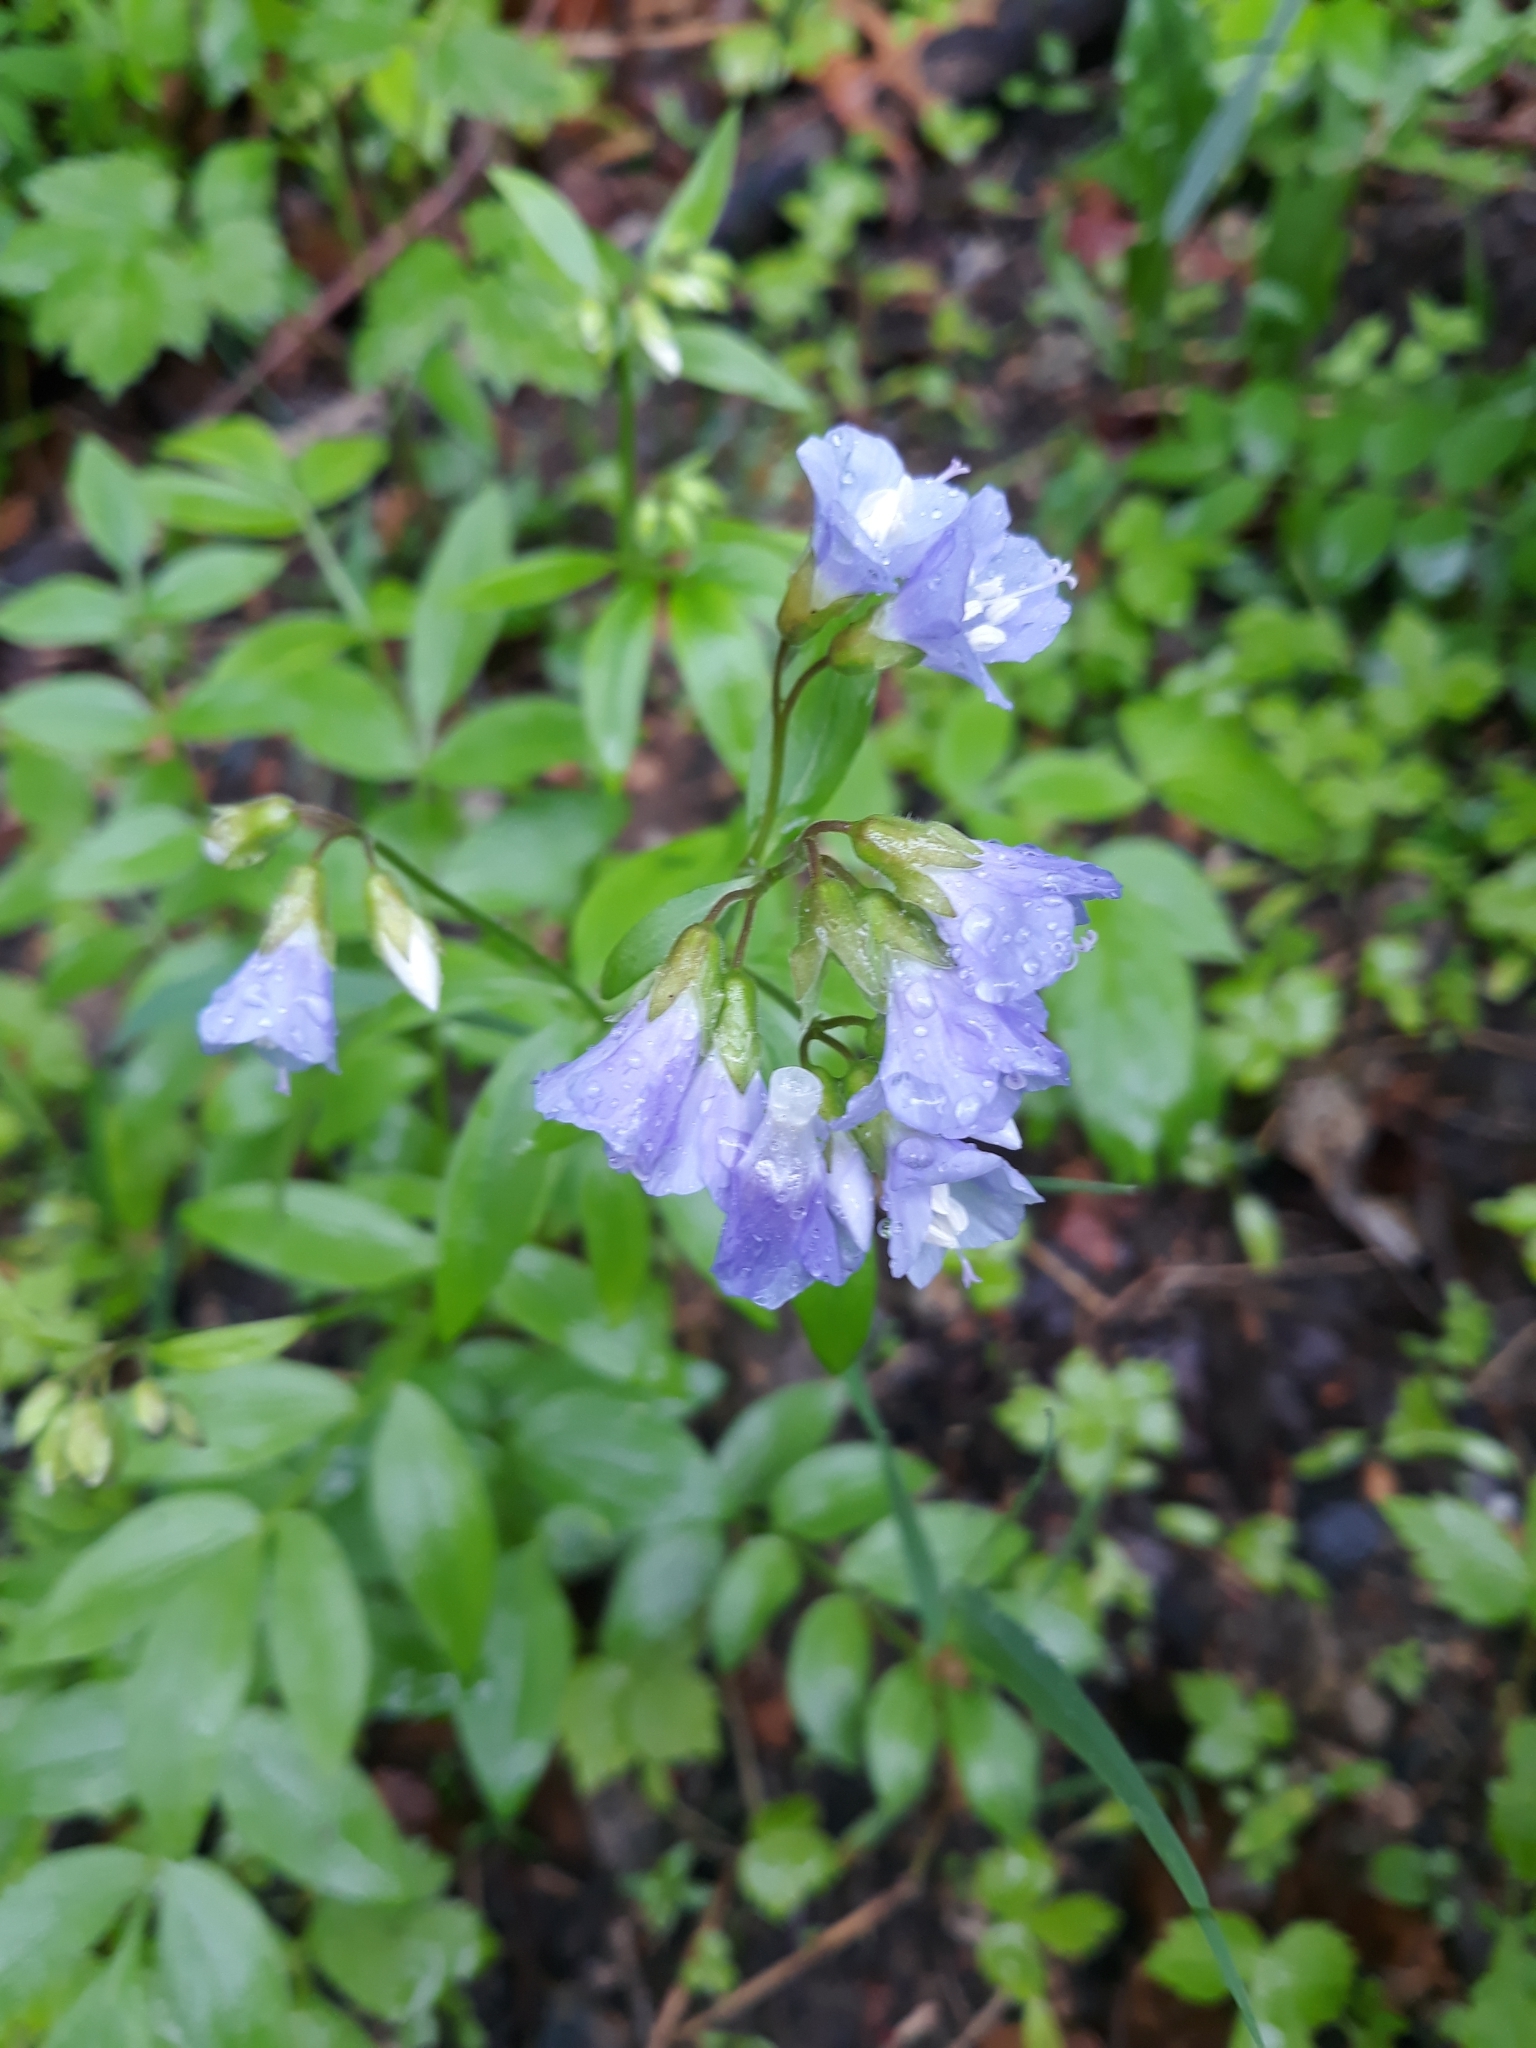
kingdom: Plantae
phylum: Tracheophyta
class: Magnoliopsida
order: Ericales
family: Polemoniaceae
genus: Polemonium
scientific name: Polemonium reptans
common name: Creeping jacob's-ladder
